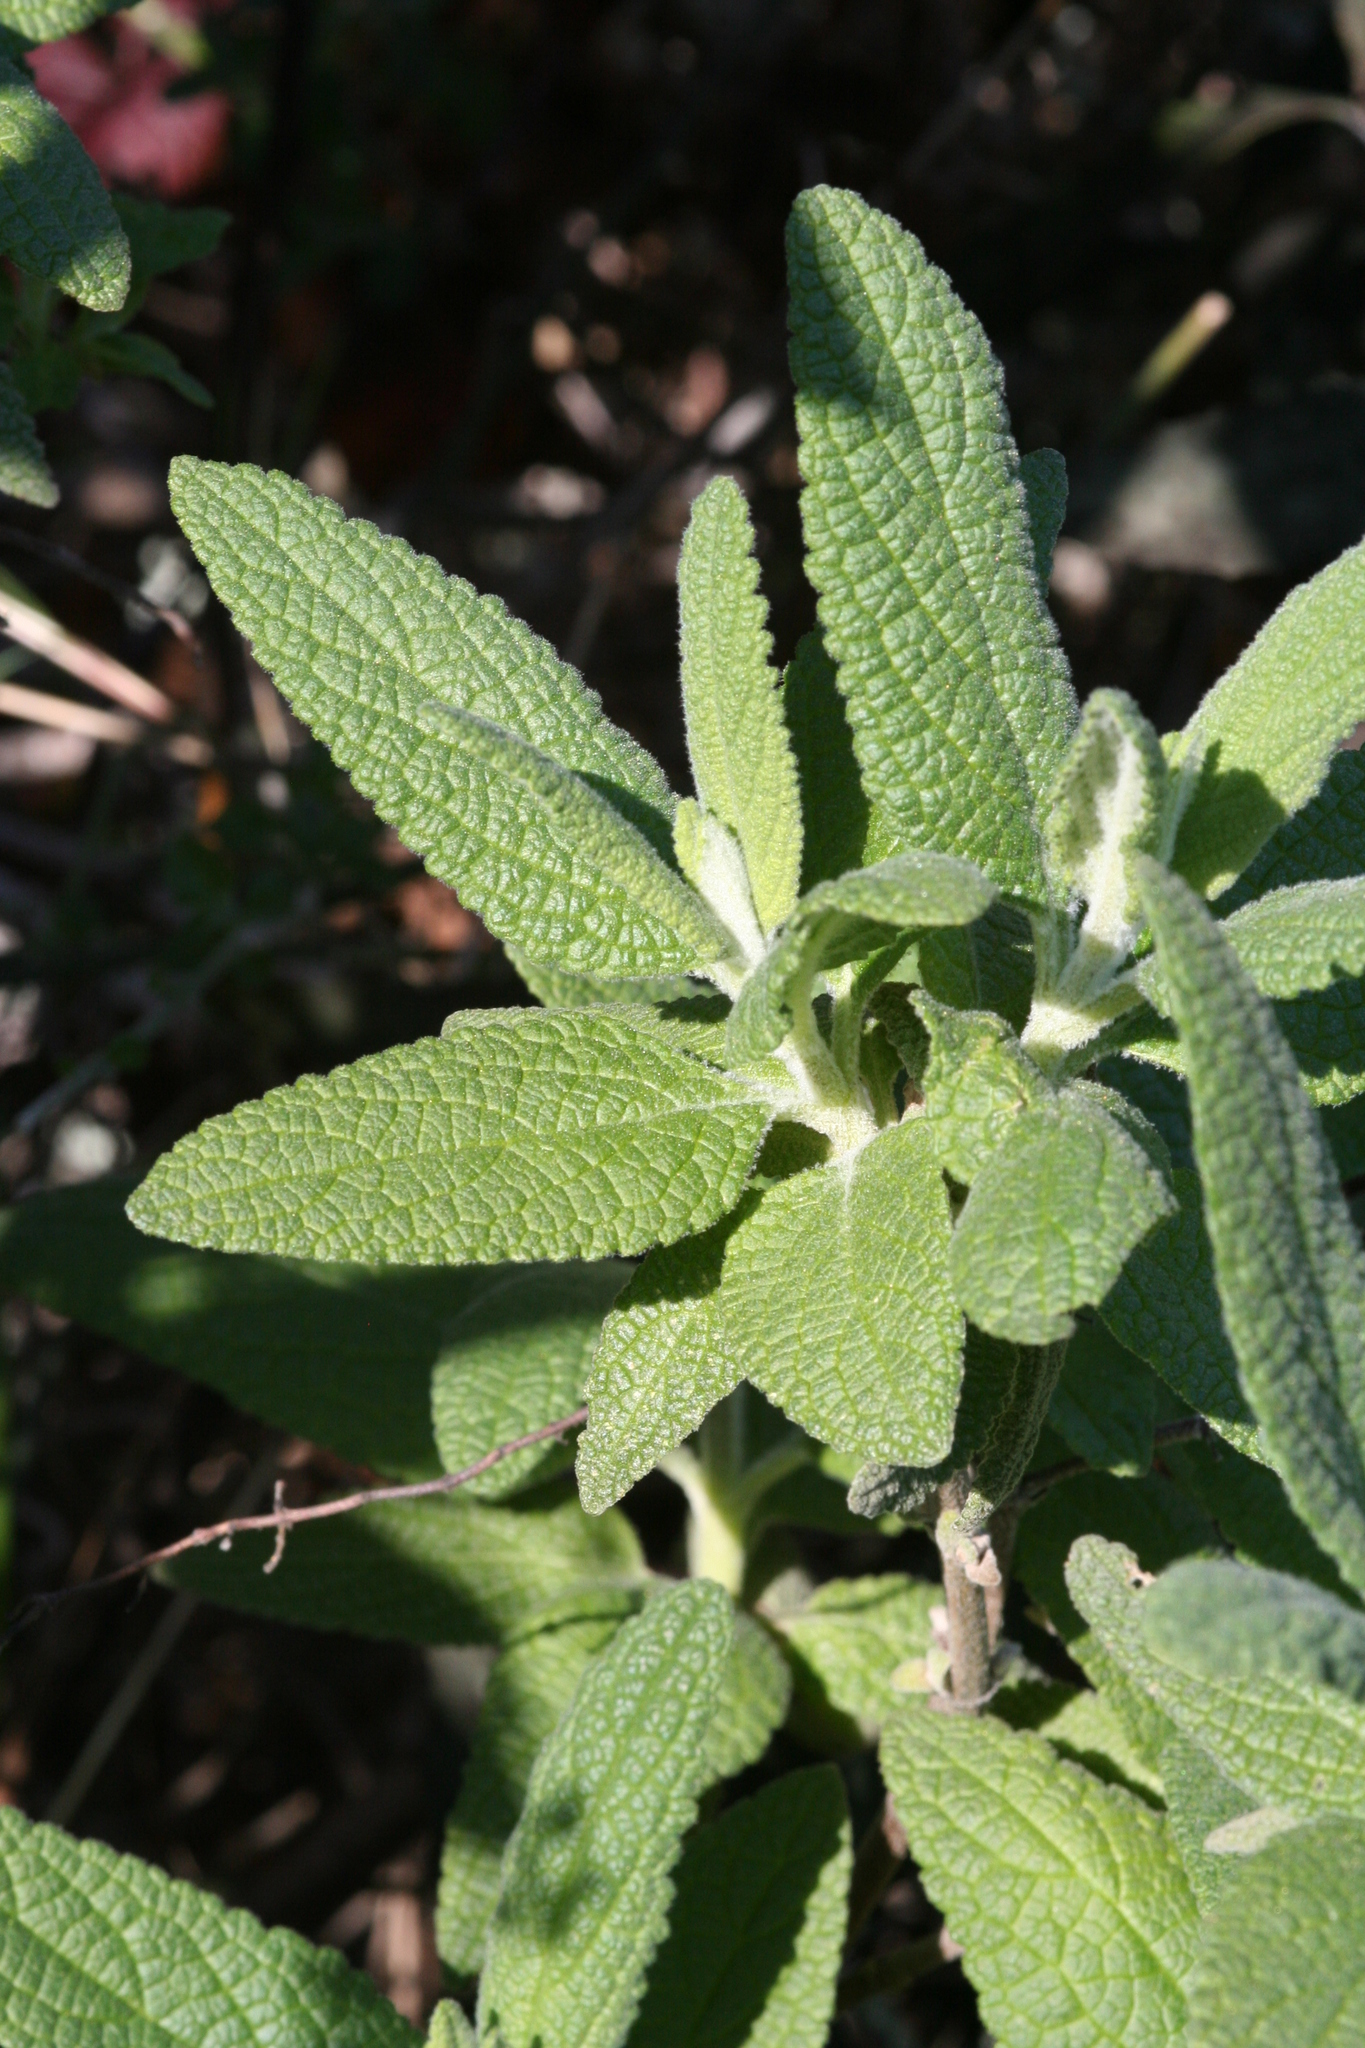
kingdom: Plantae
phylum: Tracheophyta
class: Magnoliopsida
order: Lamiales
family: Lamiaceae
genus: Lepechinia
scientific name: Lepechinia calycina
